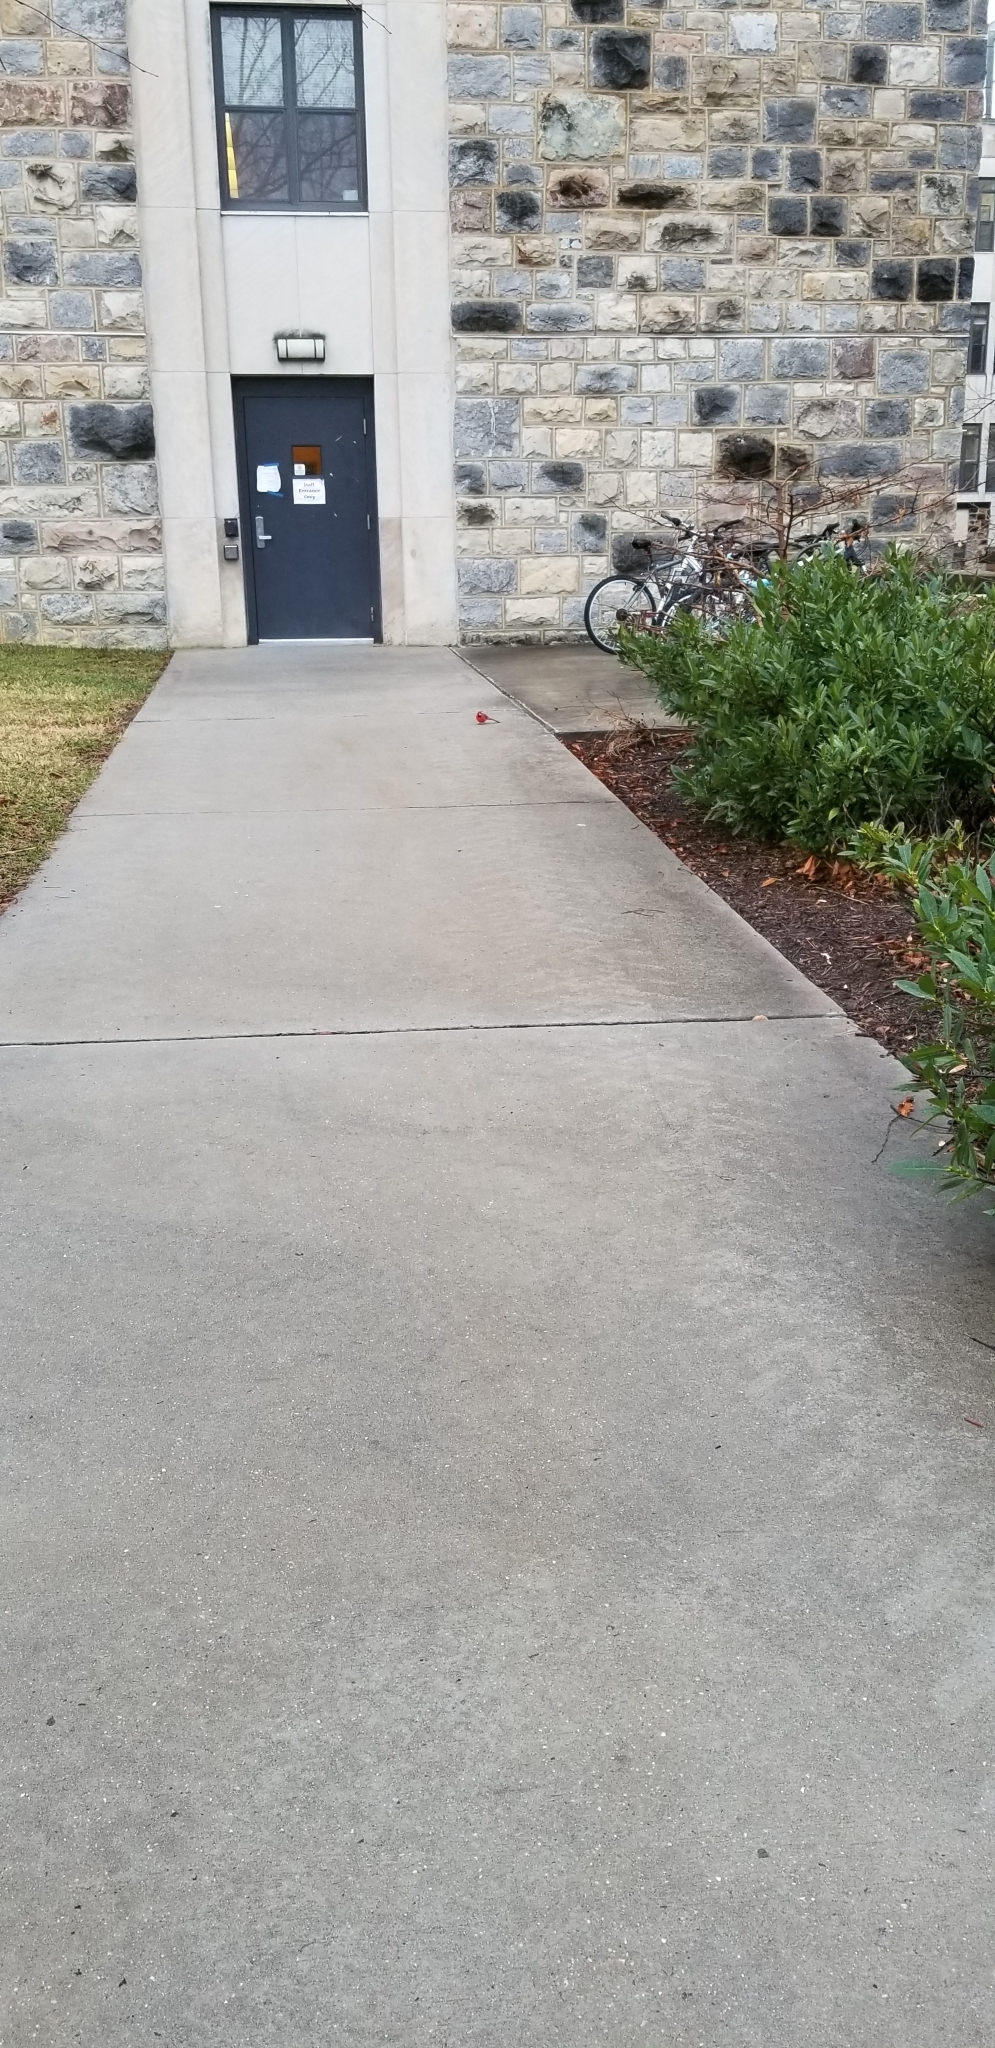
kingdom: Animalia
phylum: Chordata
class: Aves
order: Passeriformes
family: Cardinalidae
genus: Cardinalis
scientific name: Cardinalis cardinalis
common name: Northern cardinal
